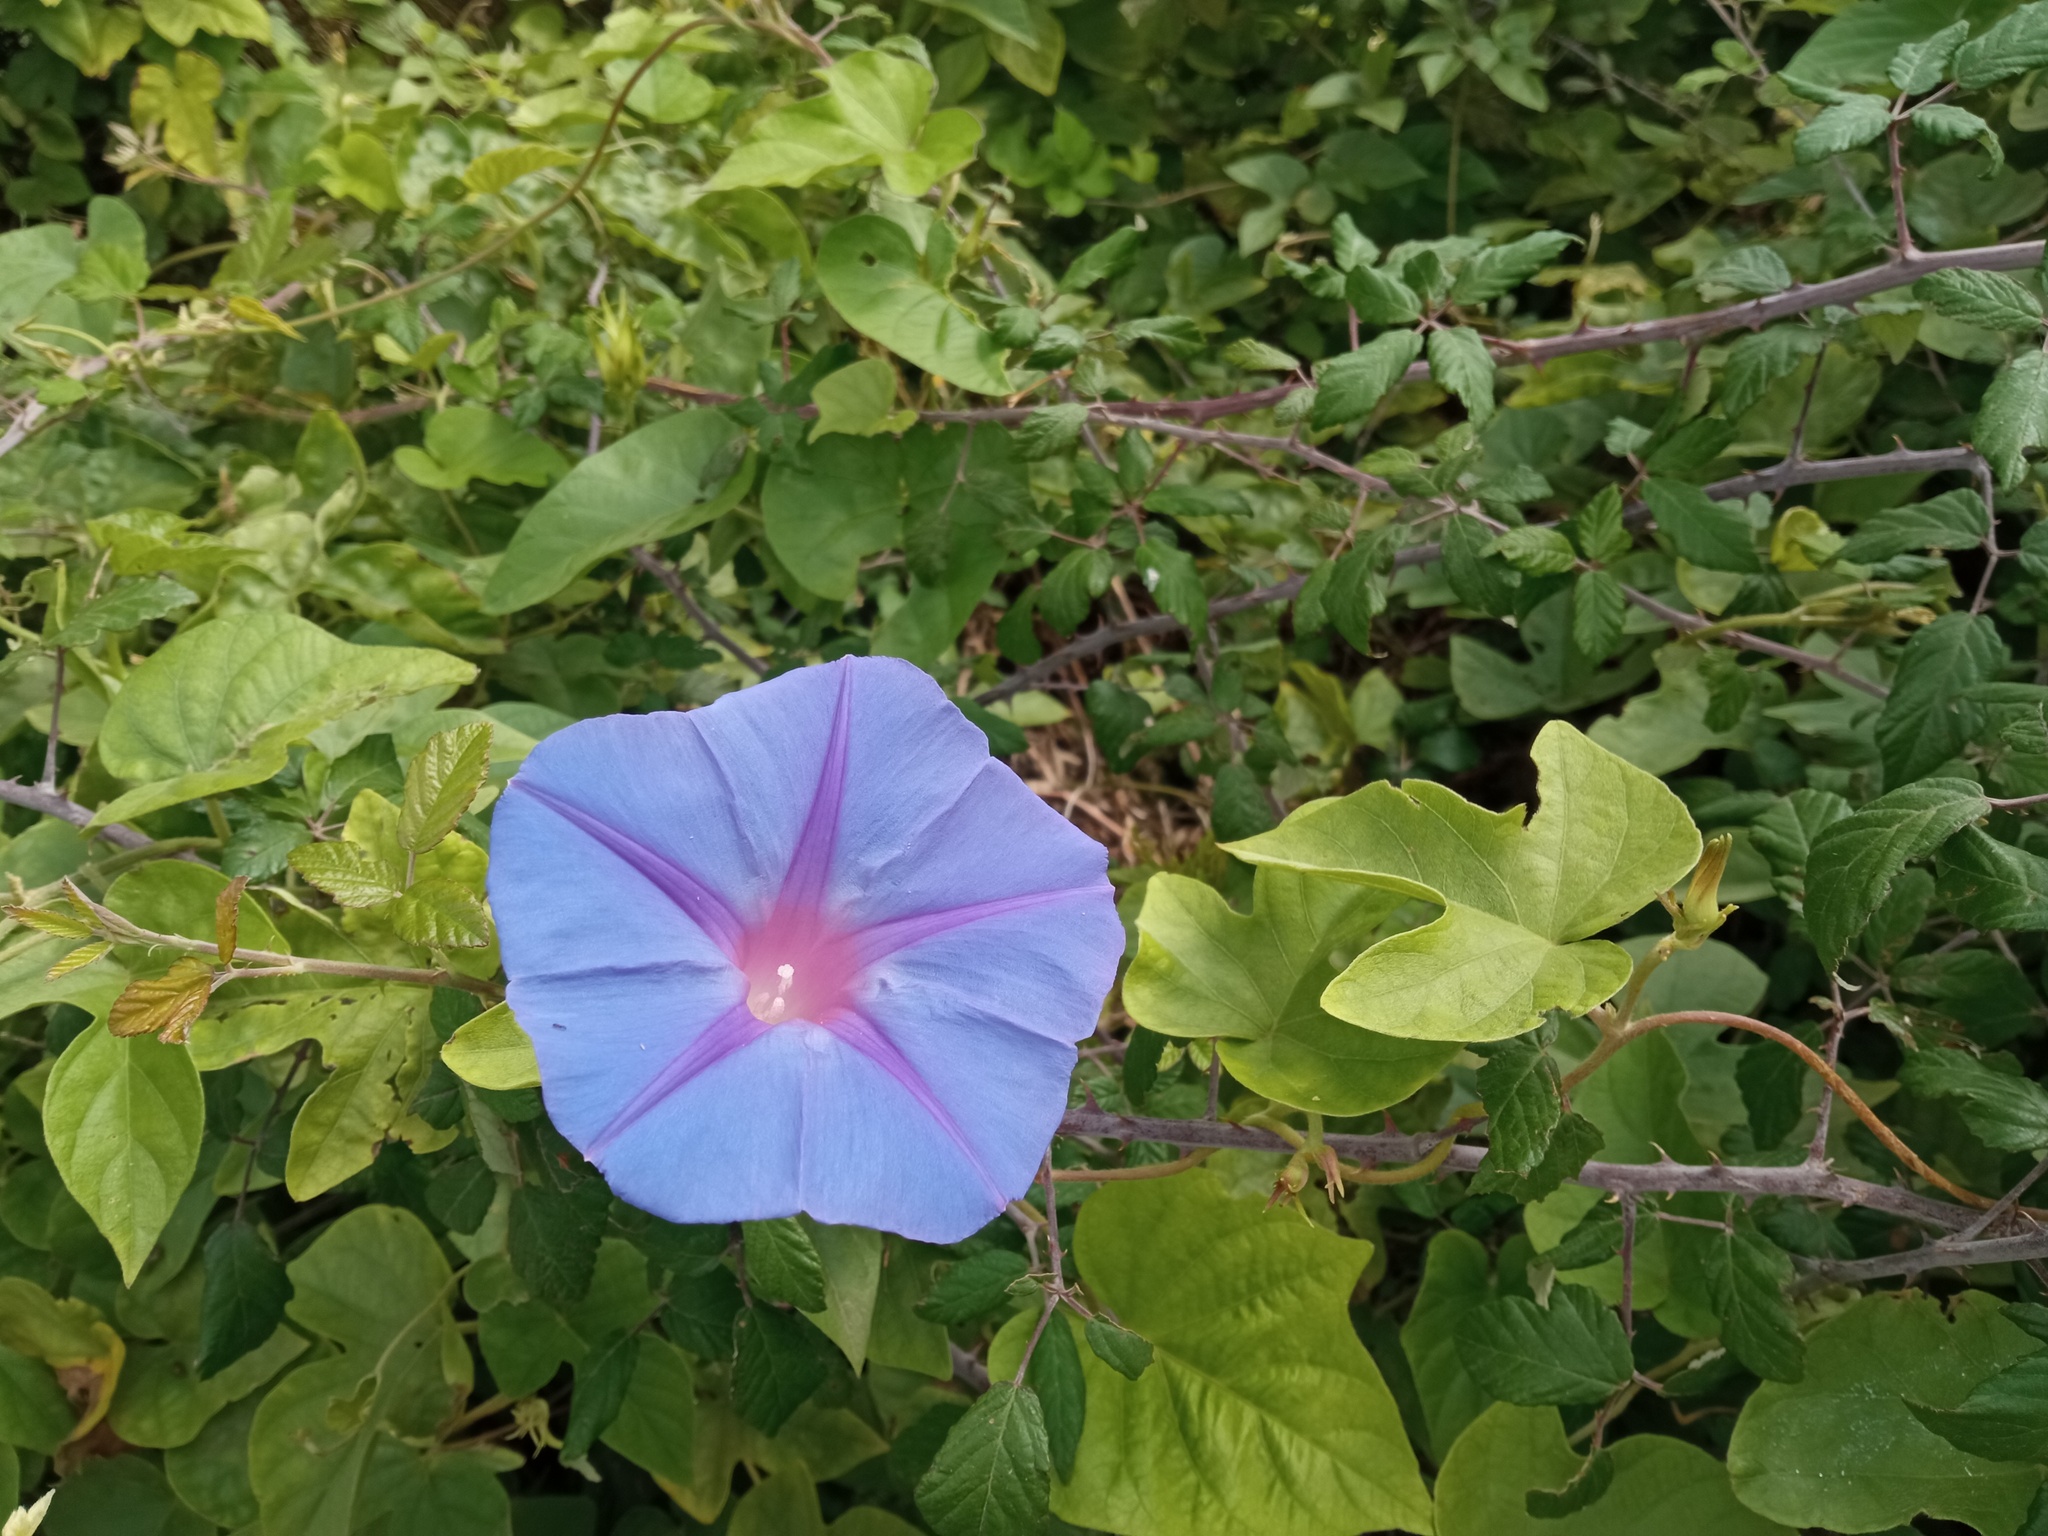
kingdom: Plantae
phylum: Tracheophyta
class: Magnoliopsida
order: Solanales
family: Convolvulaceae
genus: Ipomoea
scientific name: Ipomoea indica
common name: Blue dawnflower
